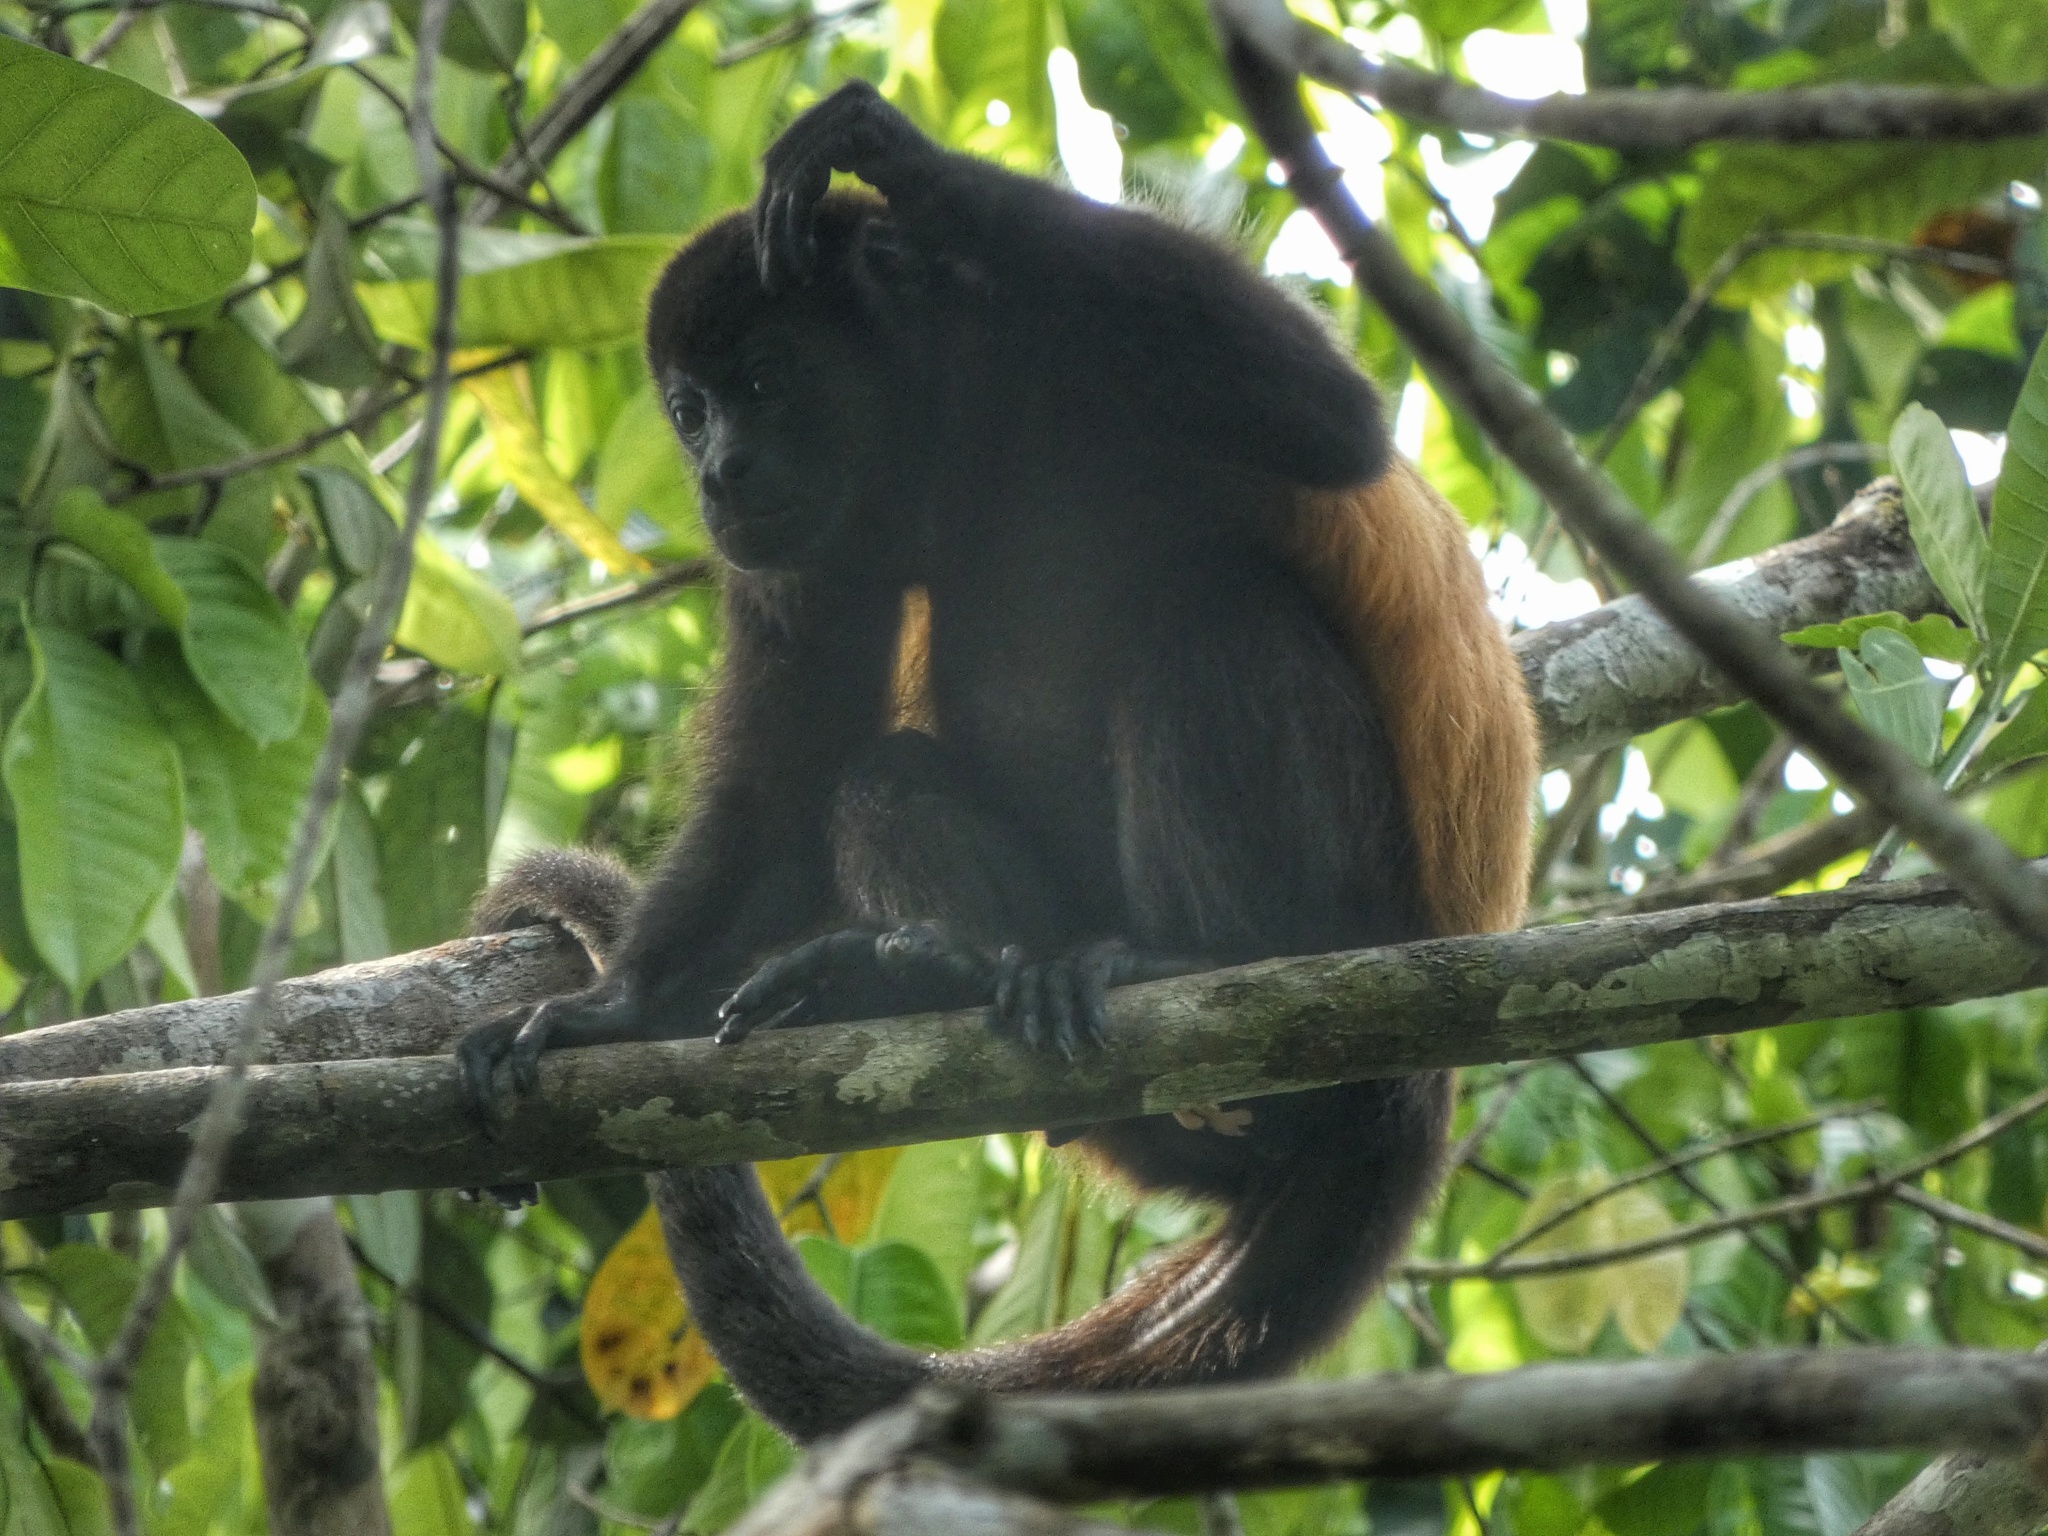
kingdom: Animalia
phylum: Chordata
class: Mammalia
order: Primates
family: Atelidae
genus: Alouatta
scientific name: Alouatta palliata
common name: Mantled howler
